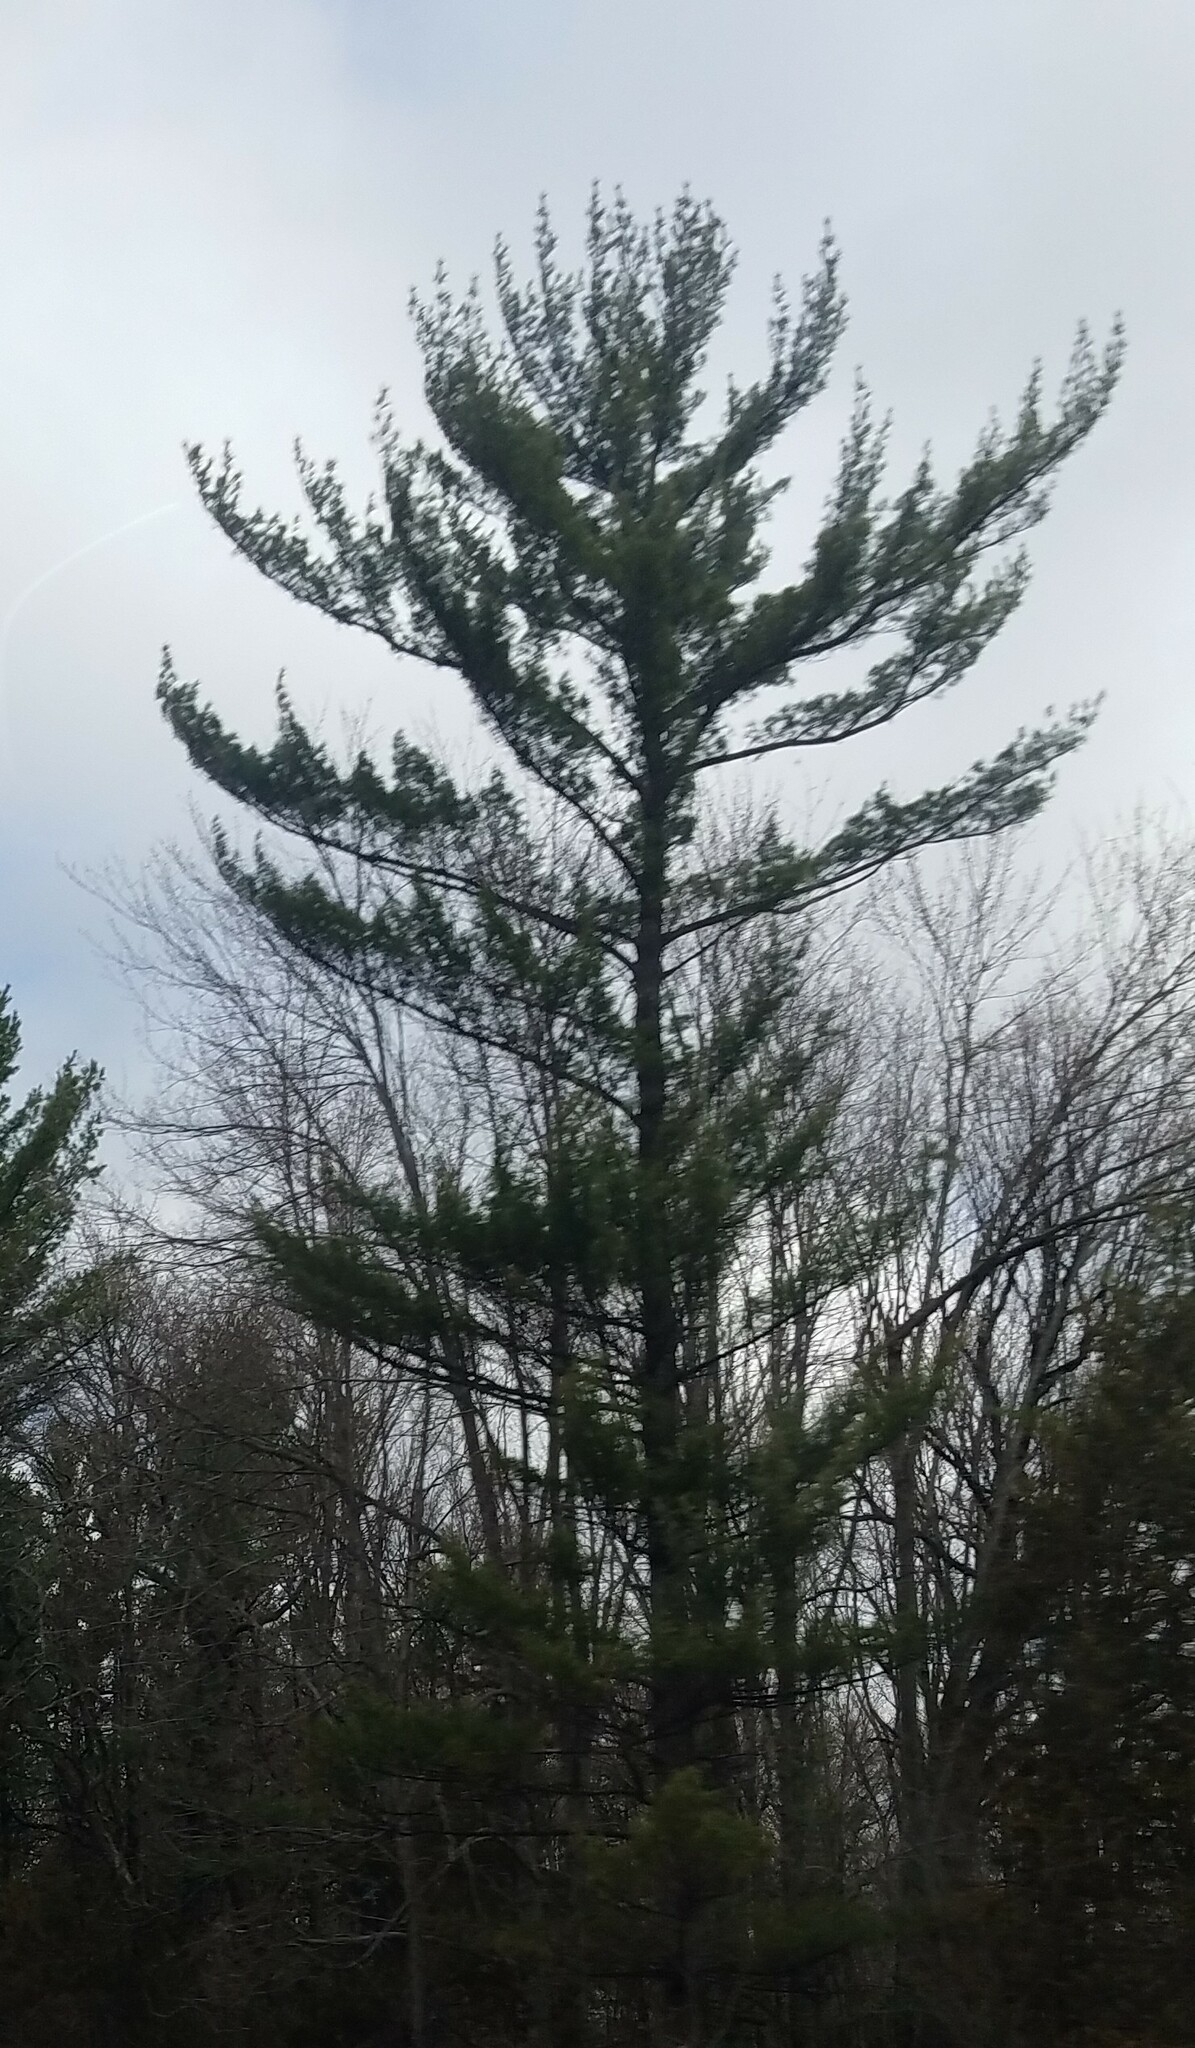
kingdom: Plantae
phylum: Tracheophyta
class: Pinopsida
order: Pinales
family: Pinaceae
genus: Pinus
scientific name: Pinus strobus
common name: Weymouth pine
